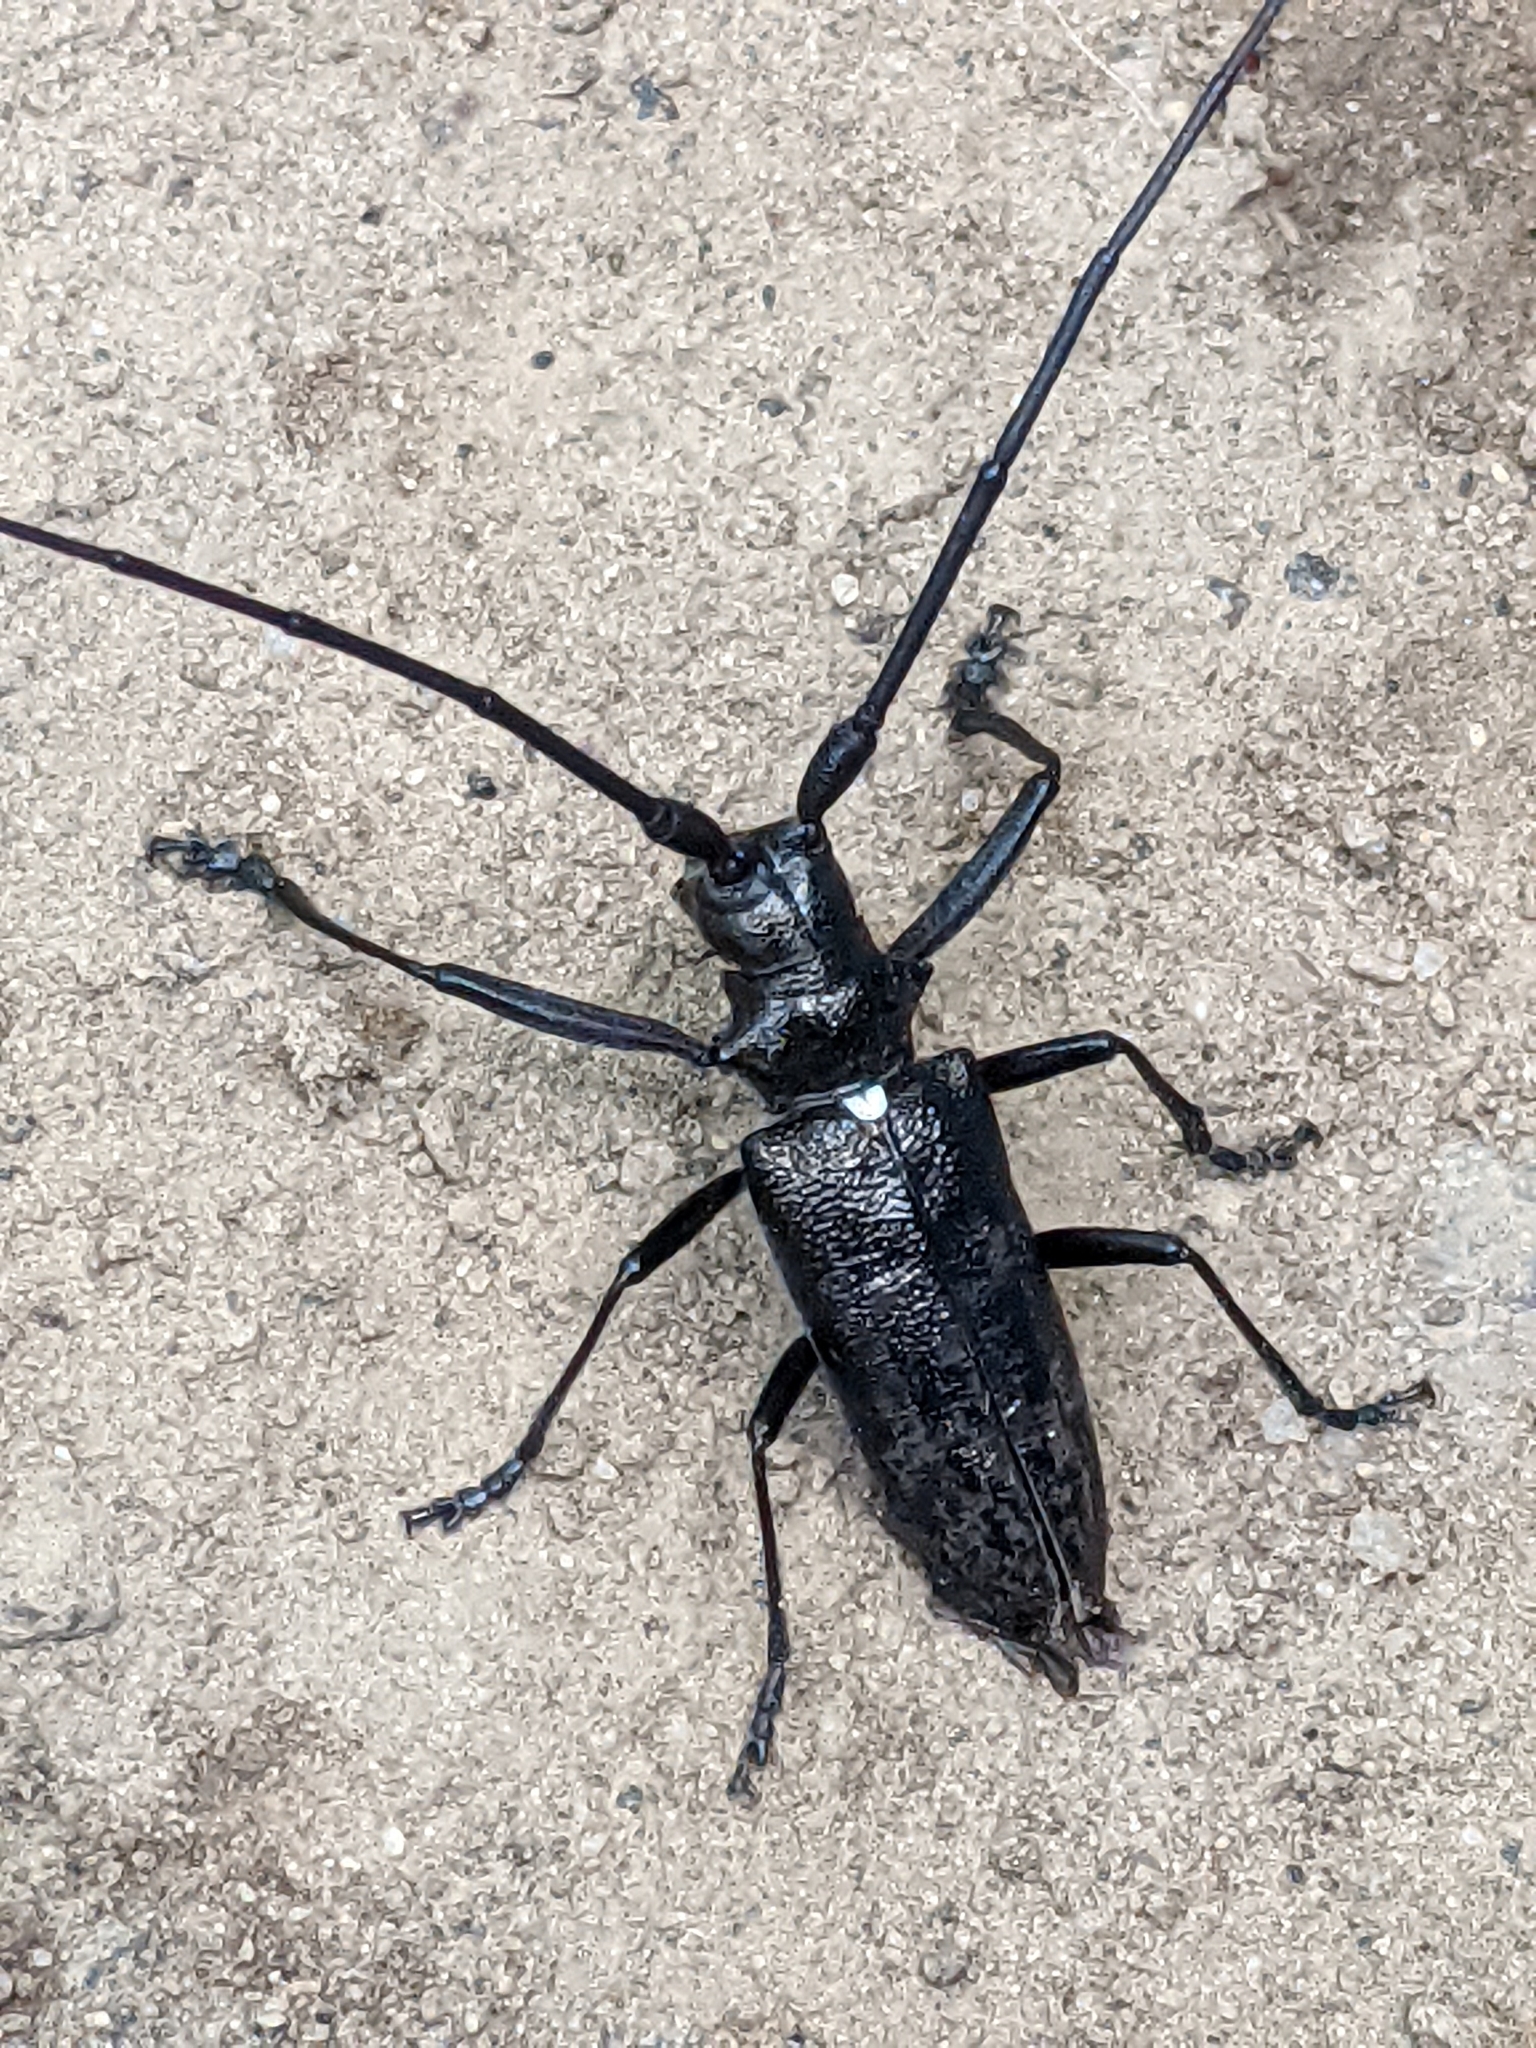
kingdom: Animalia
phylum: Arthropoda
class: Insecta
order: Coleoptera
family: Cerambycidae
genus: Monochamus
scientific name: Monochamus scutellatus
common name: White-spotted sawyer beetle
